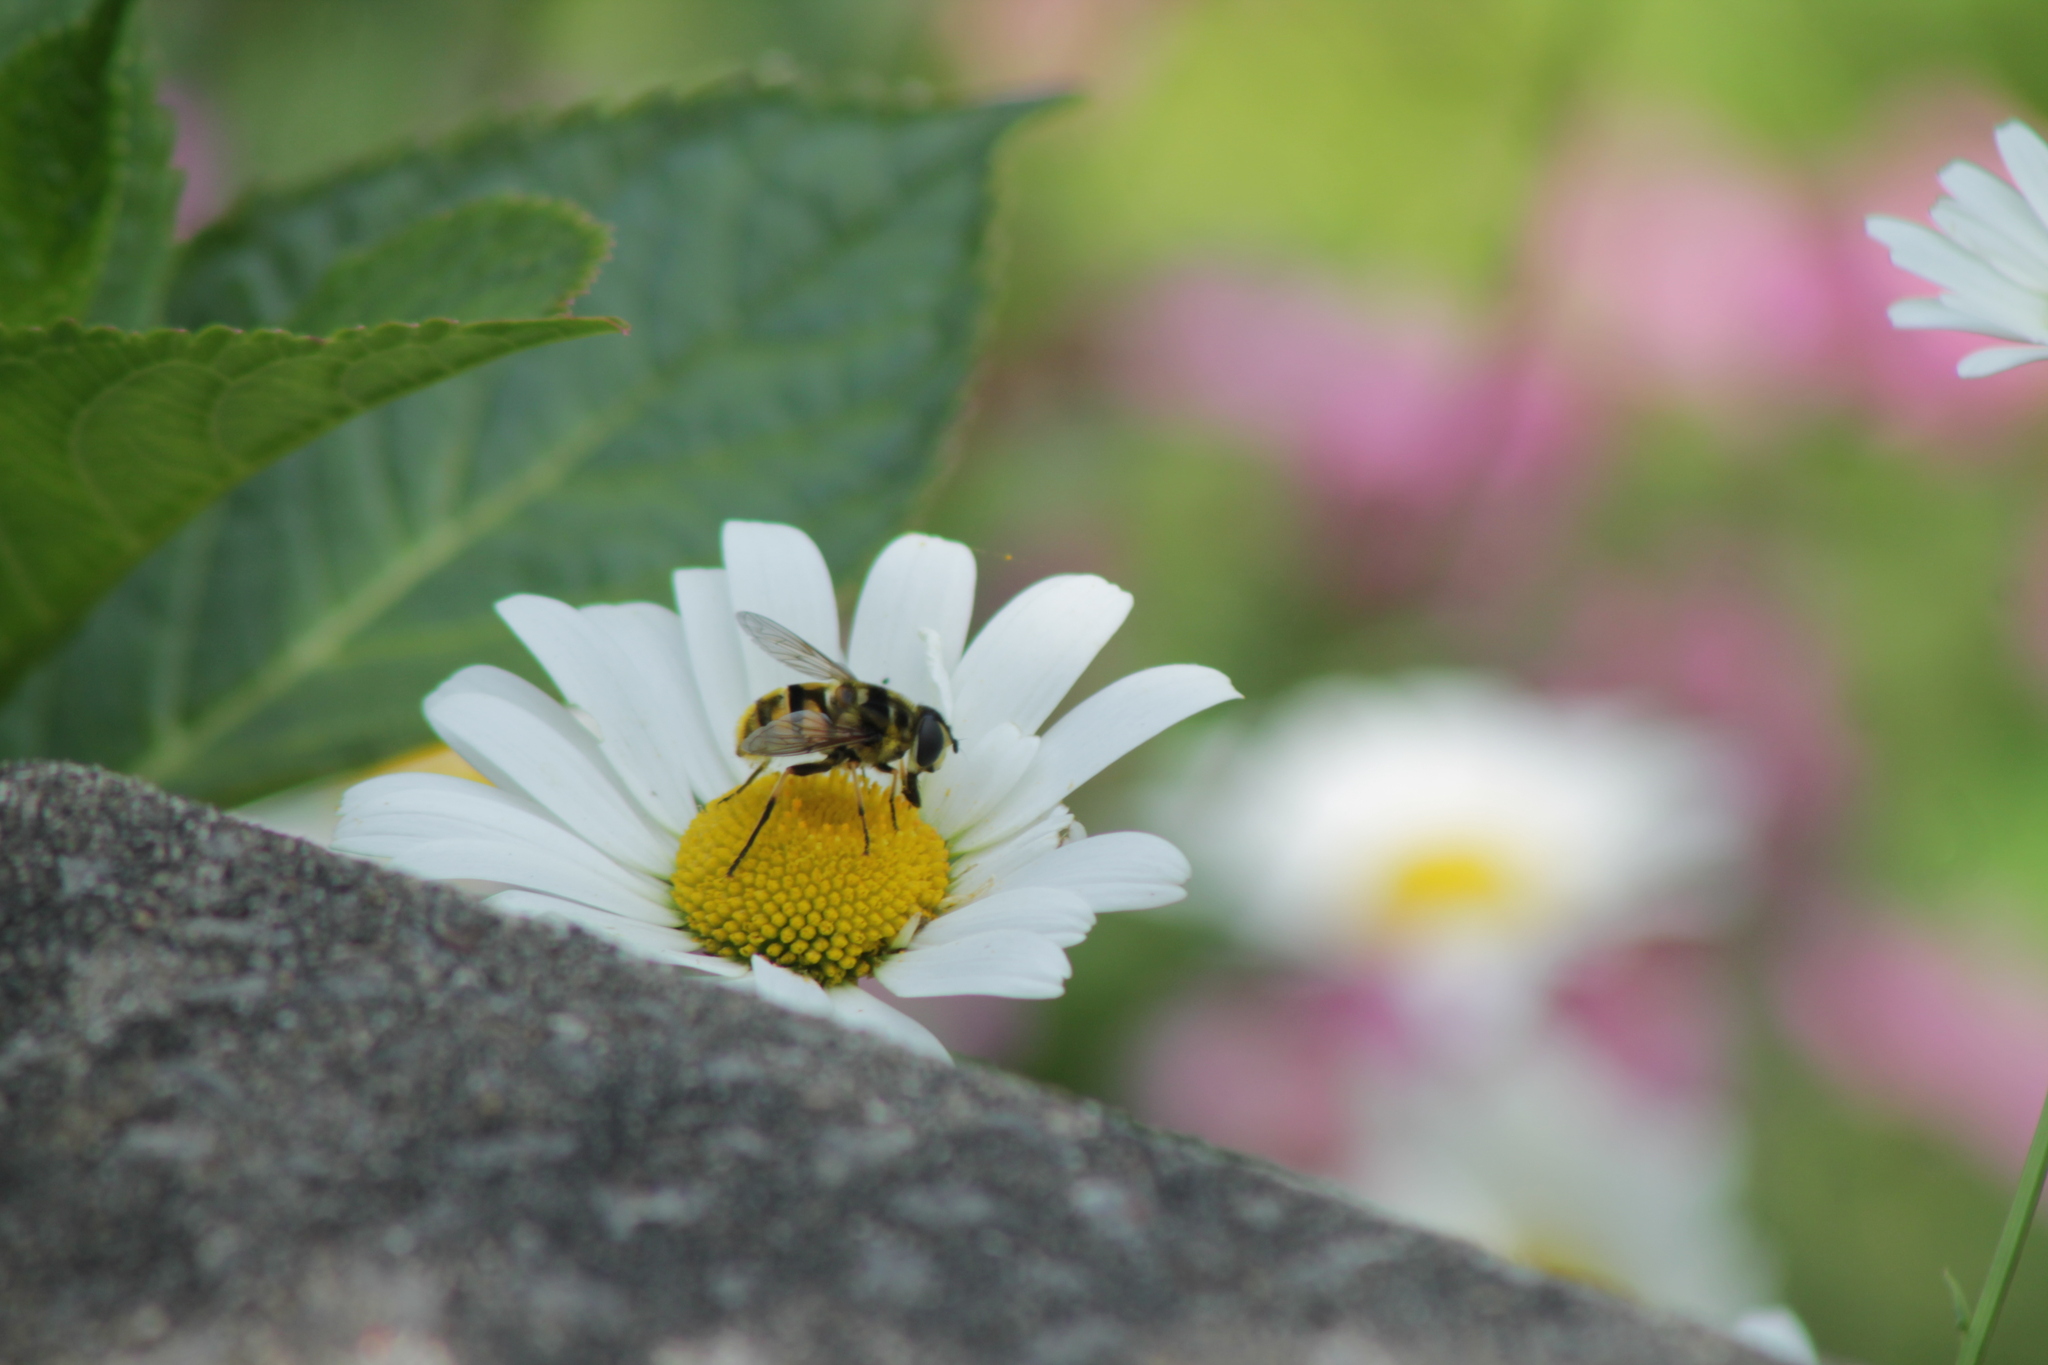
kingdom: Animalia
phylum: Arthropoda
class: Insecta
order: Diptera
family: Syrphidae
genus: Myathropa
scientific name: Myathropa florea
